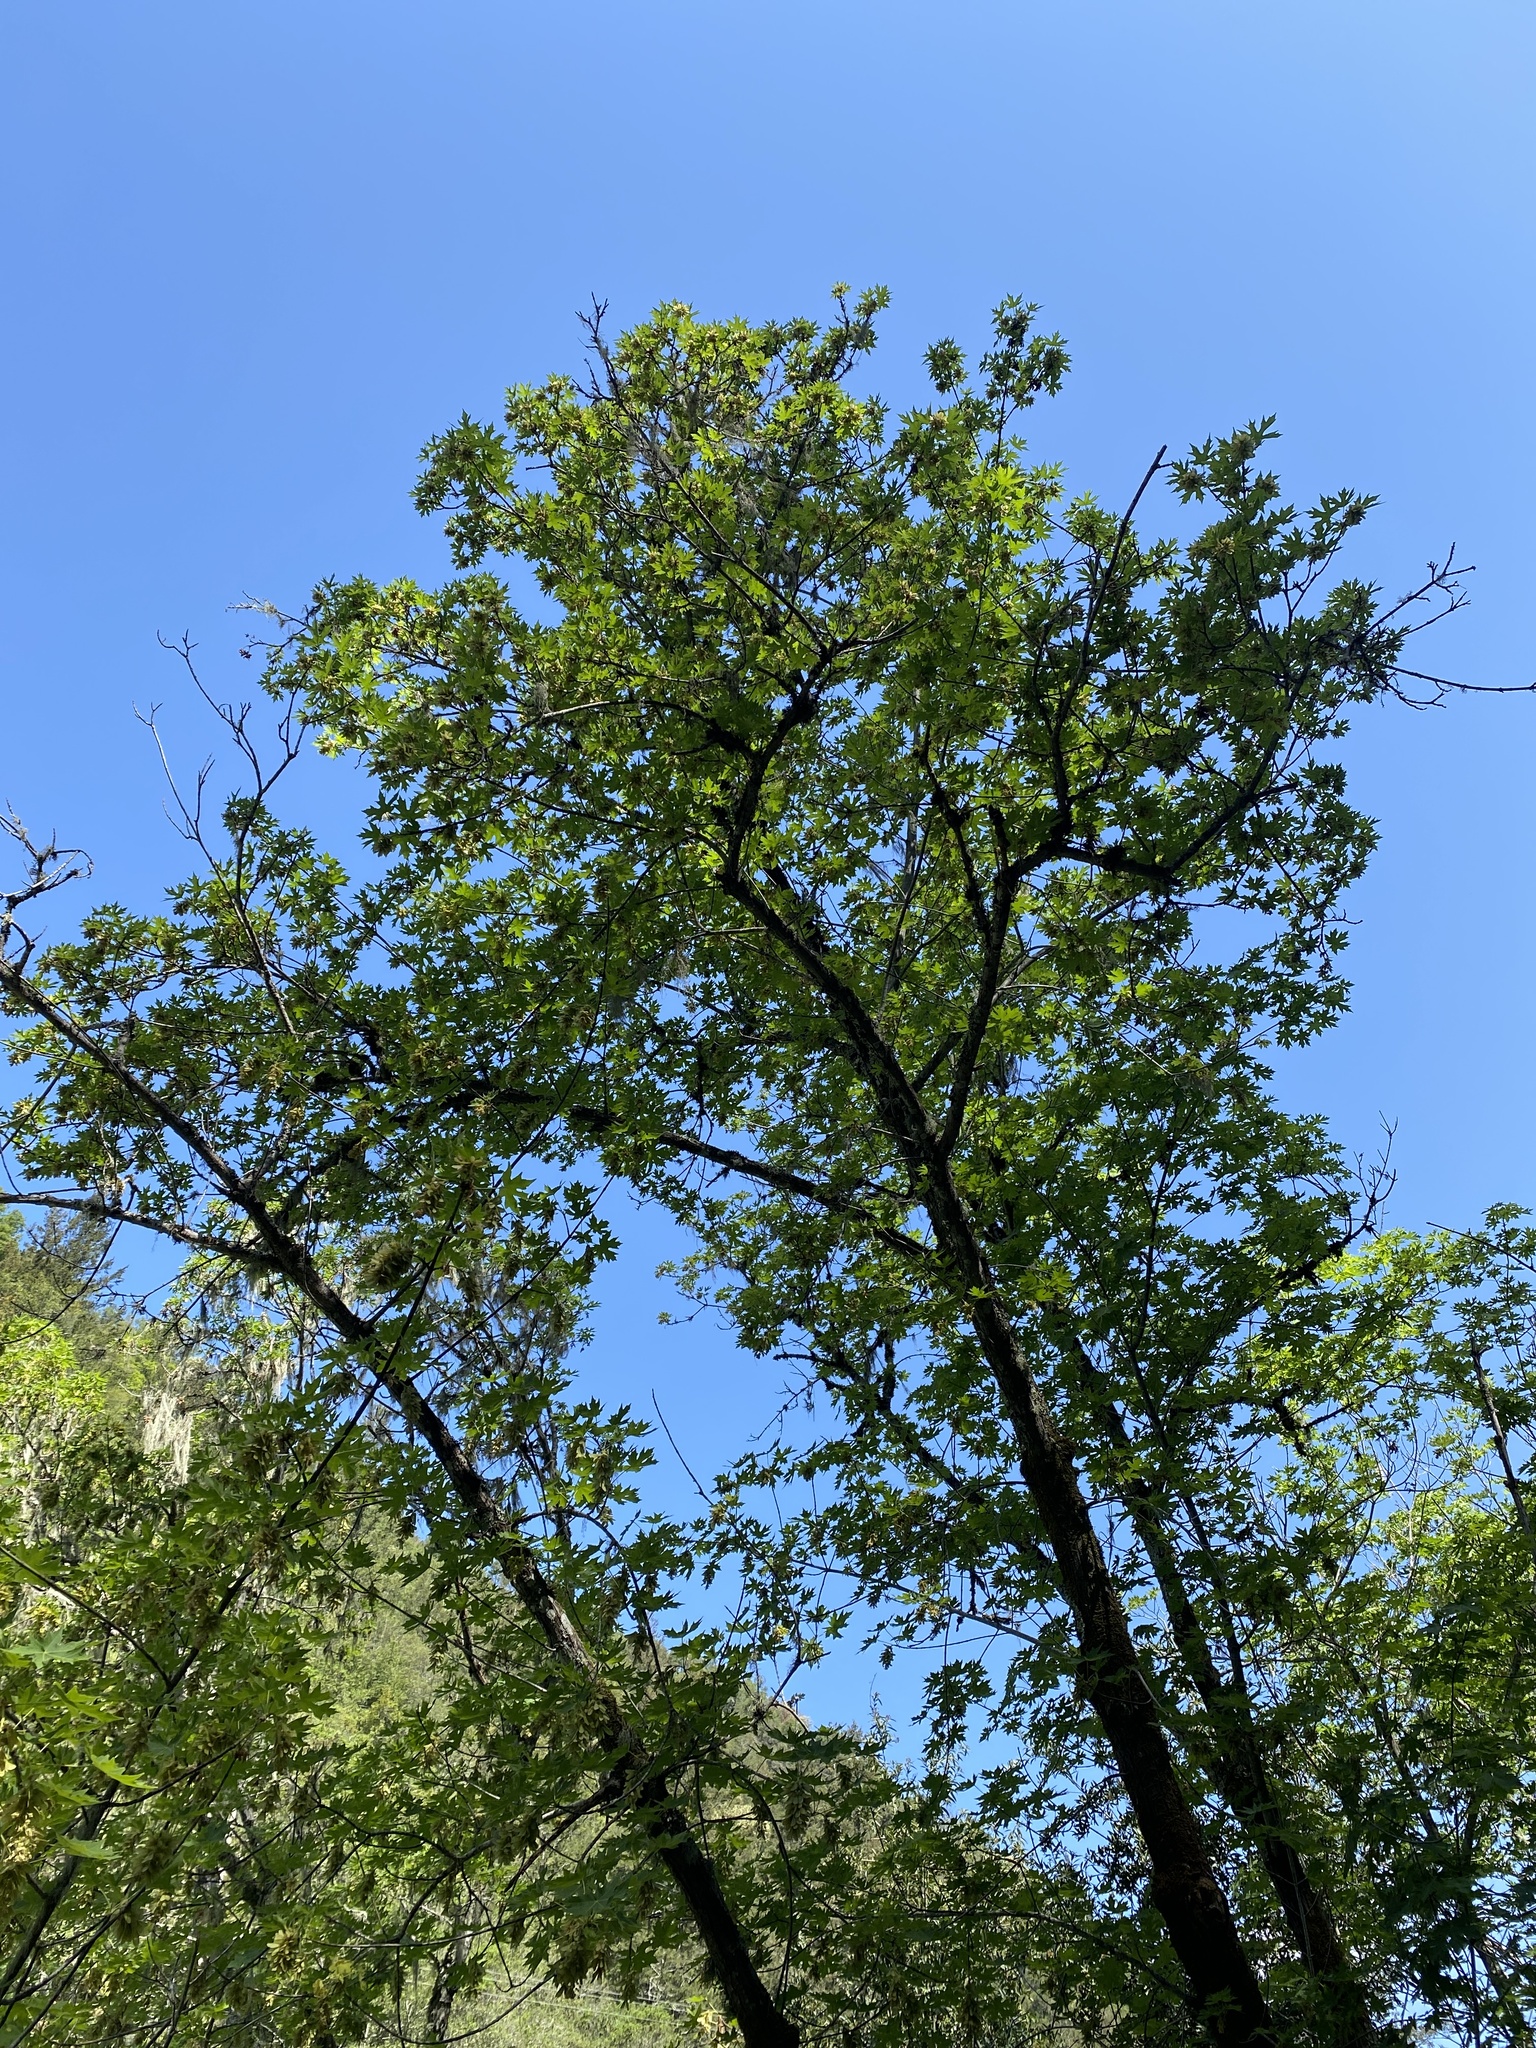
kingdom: Plantae
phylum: Tracheophyta
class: Magnoliopsida
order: Sapindales
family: Sapindaceae
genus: Acer
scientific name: Acer macrophyllum
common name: Oregon maple
